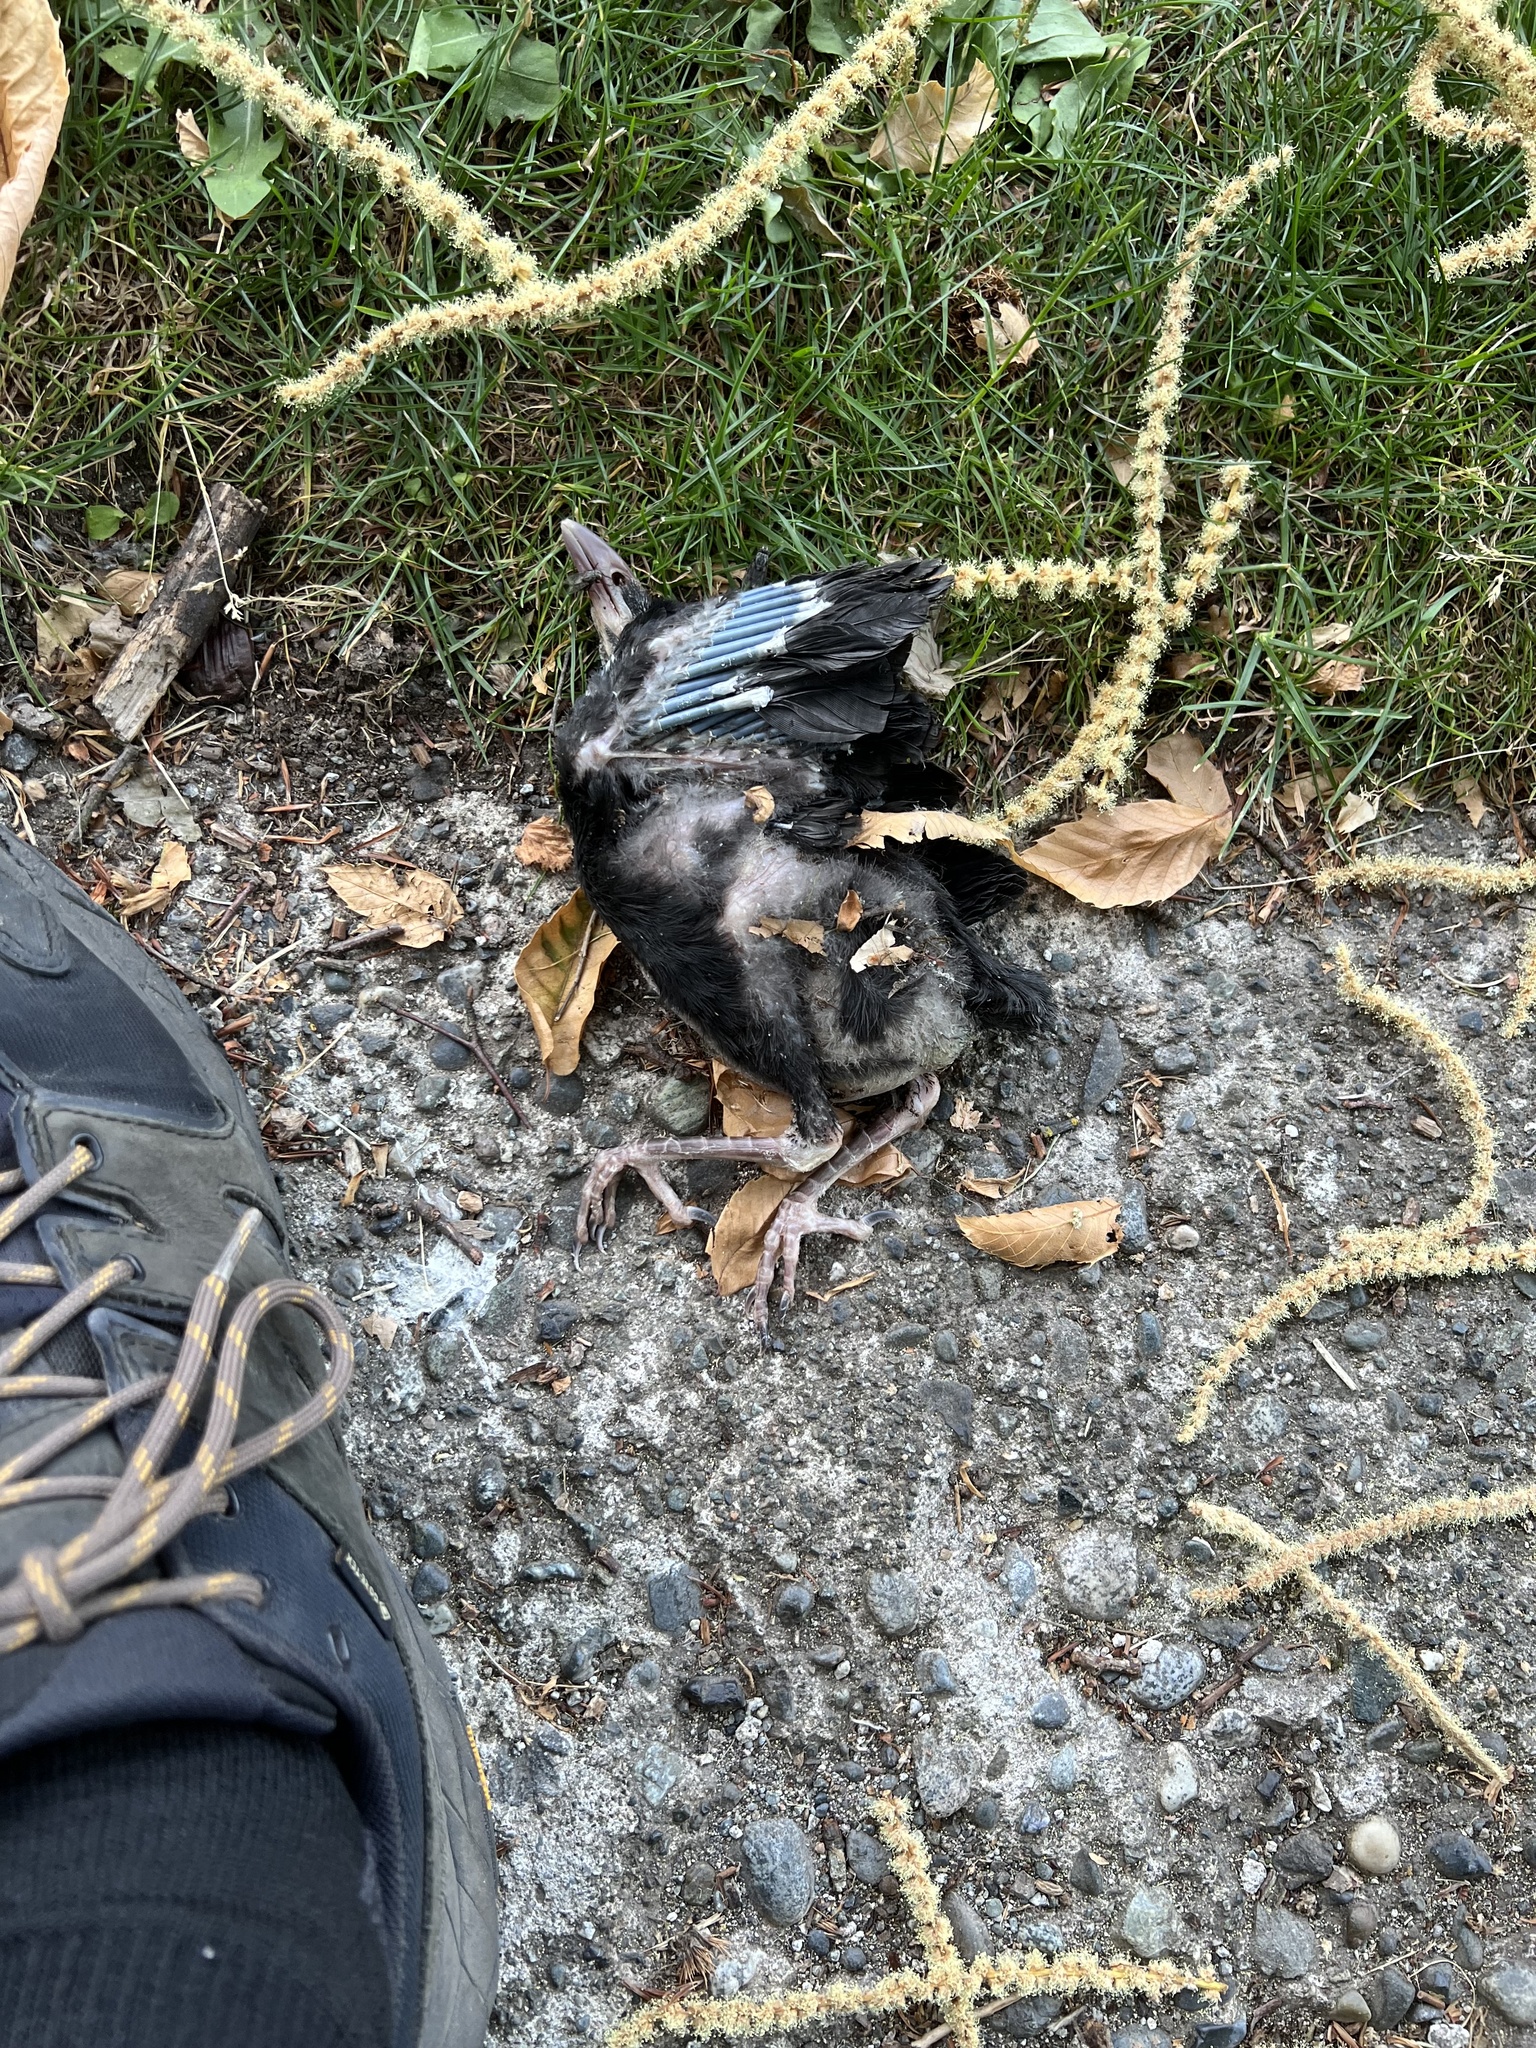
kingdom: Animalia
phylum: Chordata
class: Aves
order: Passeriformes
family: Corvidae
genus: Corvus
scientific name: Corvus brachyrhynchos
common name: American crow
